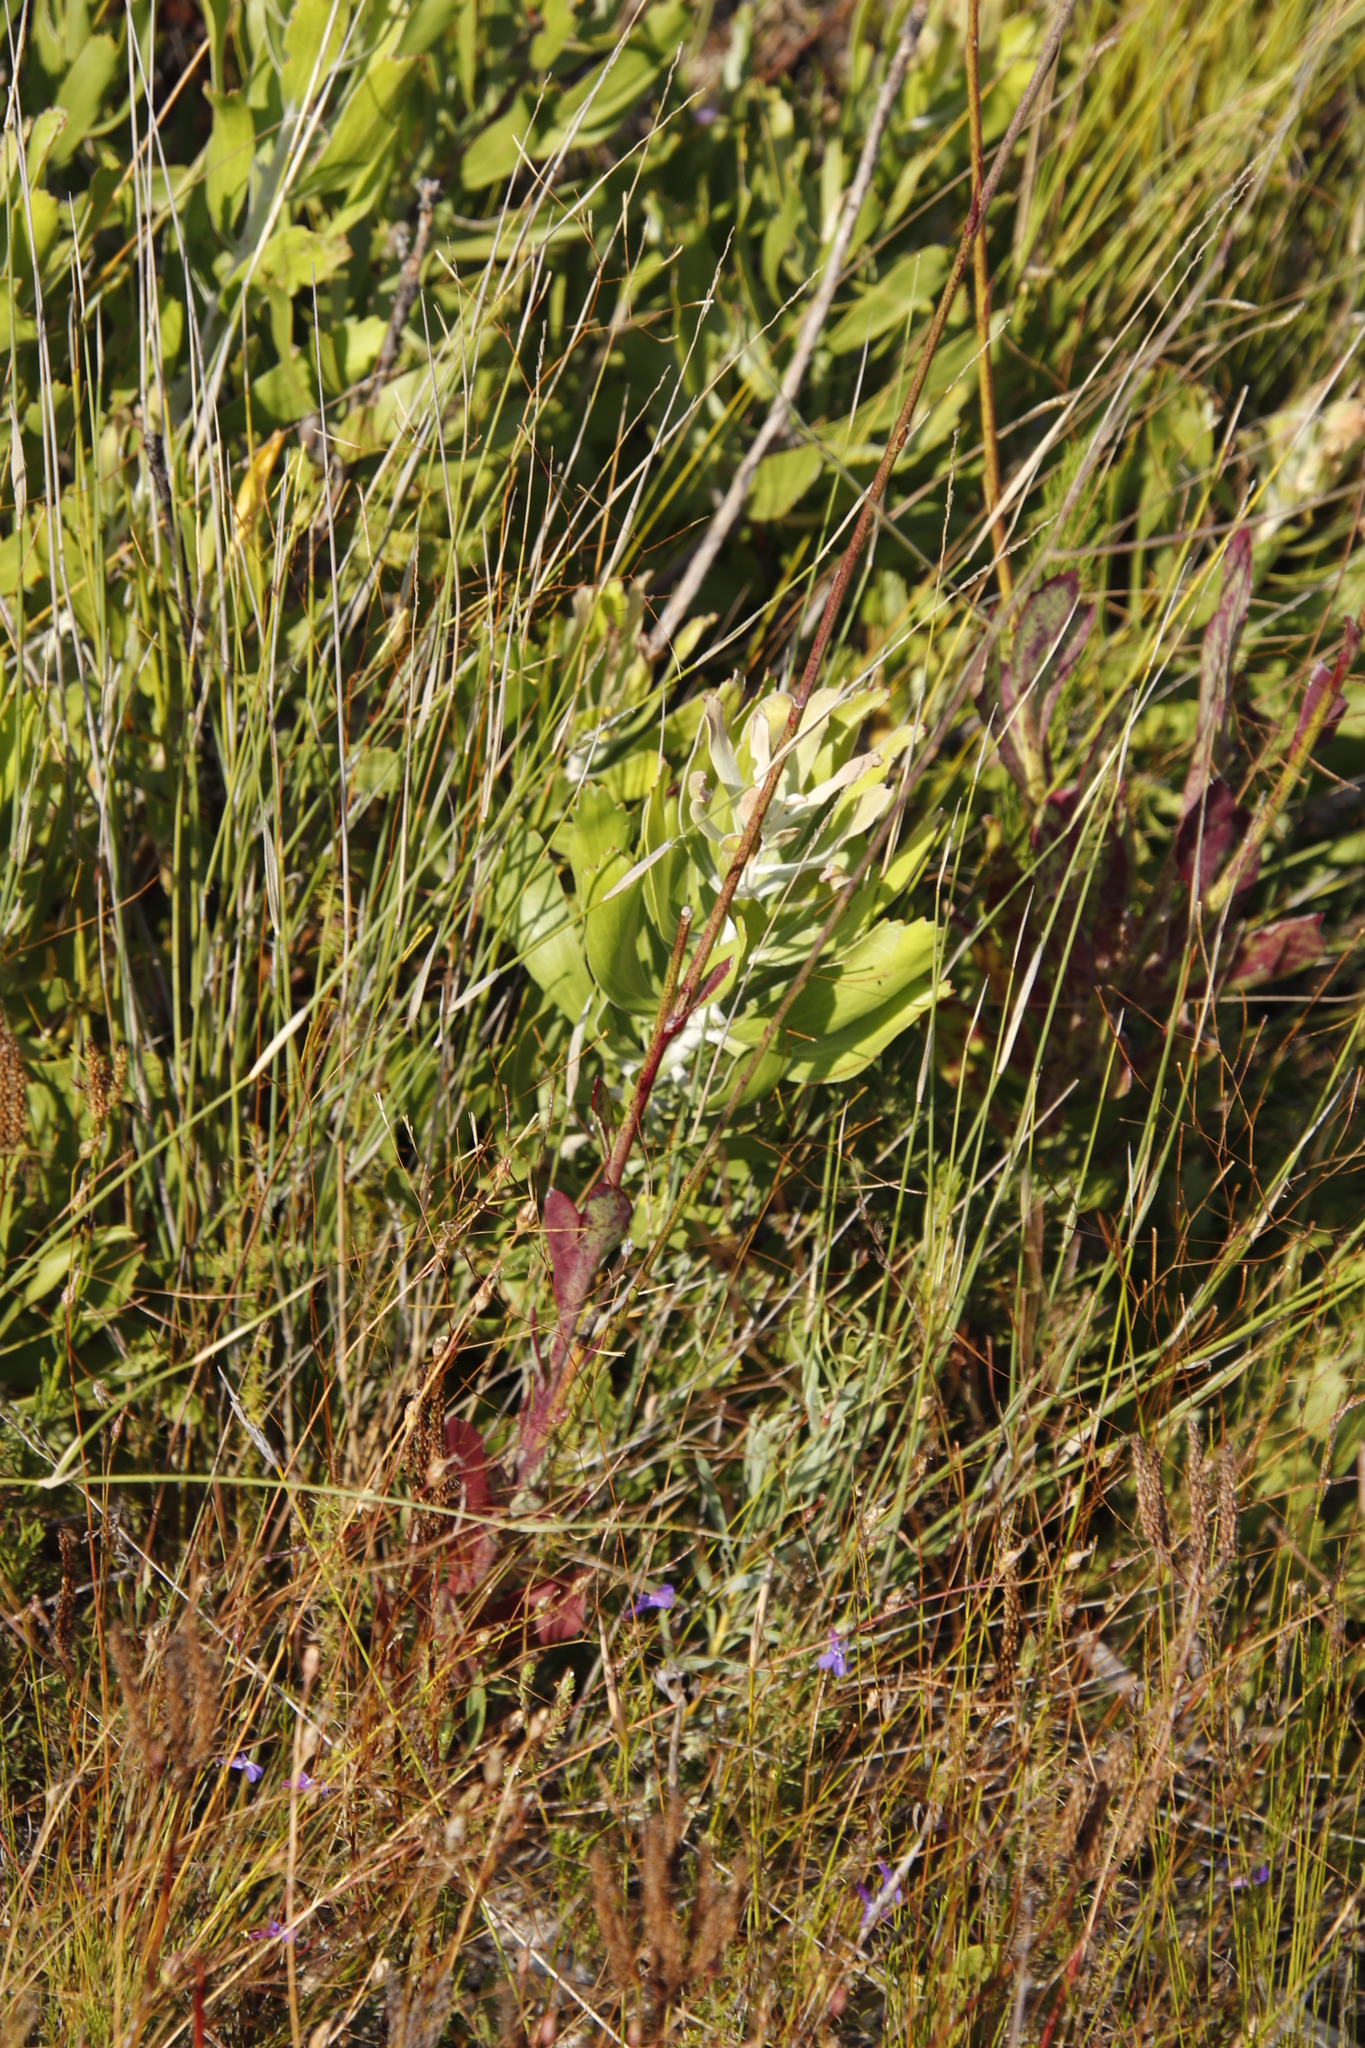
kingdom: Plantae
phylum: Tracheophyta
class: Magnoliopsida
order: Proteales
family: Proteaceae
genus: Leucospermum
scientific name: Leucospermum cuneiforme
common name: Common pincushion
